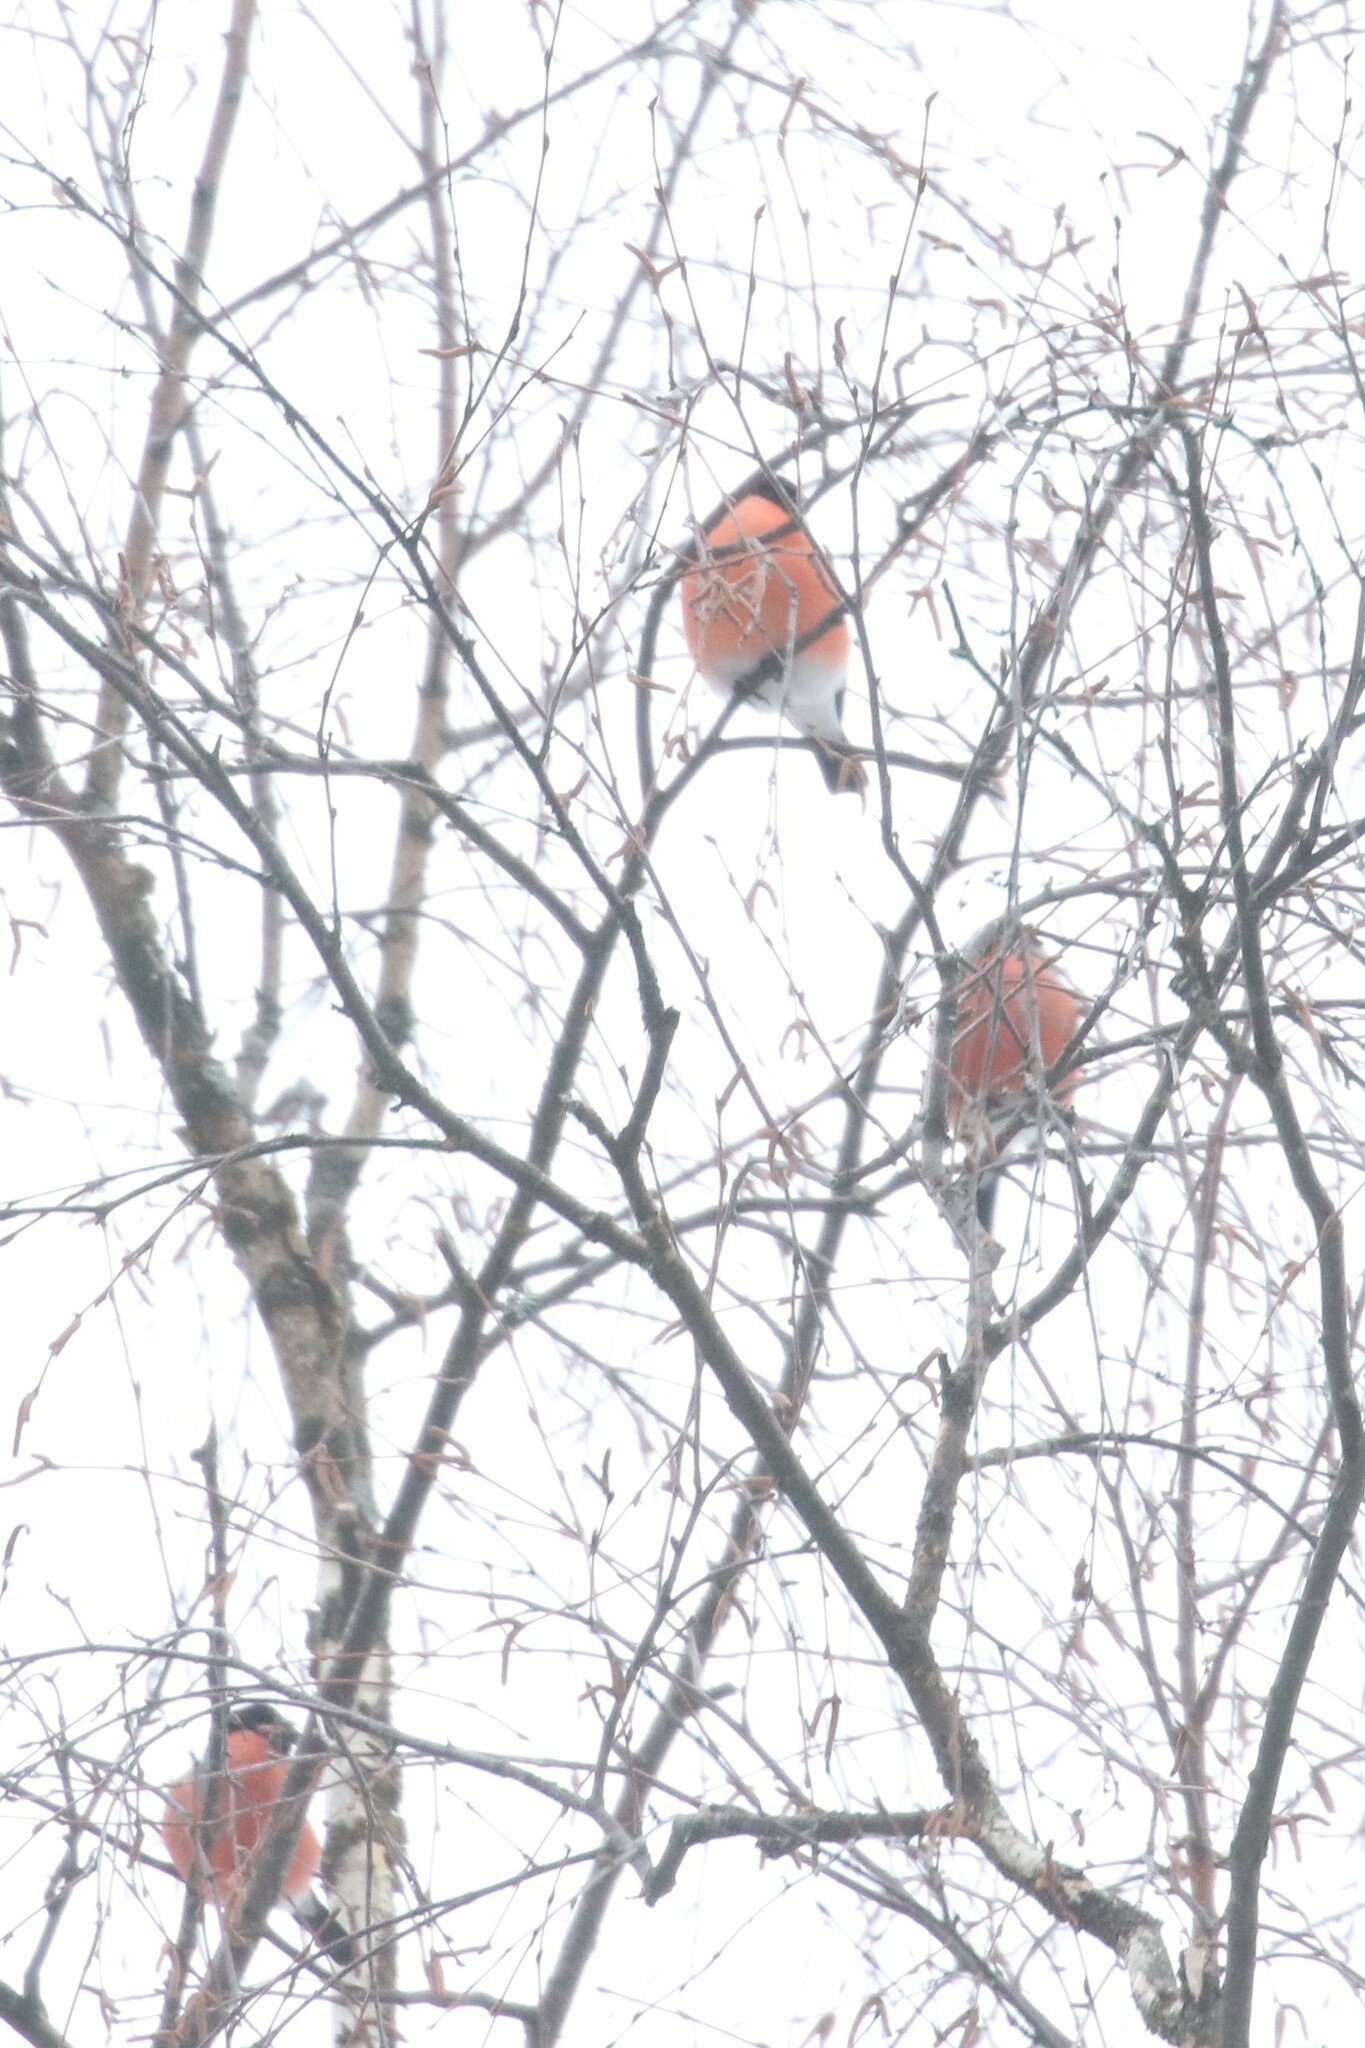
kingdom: Animalia
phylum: Chordata
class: Aves
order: Passeriformes
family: Fringillidae
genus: Pyrrhula
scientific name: Pyrrhula pyrrhula
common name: Eurasian bullfinch
